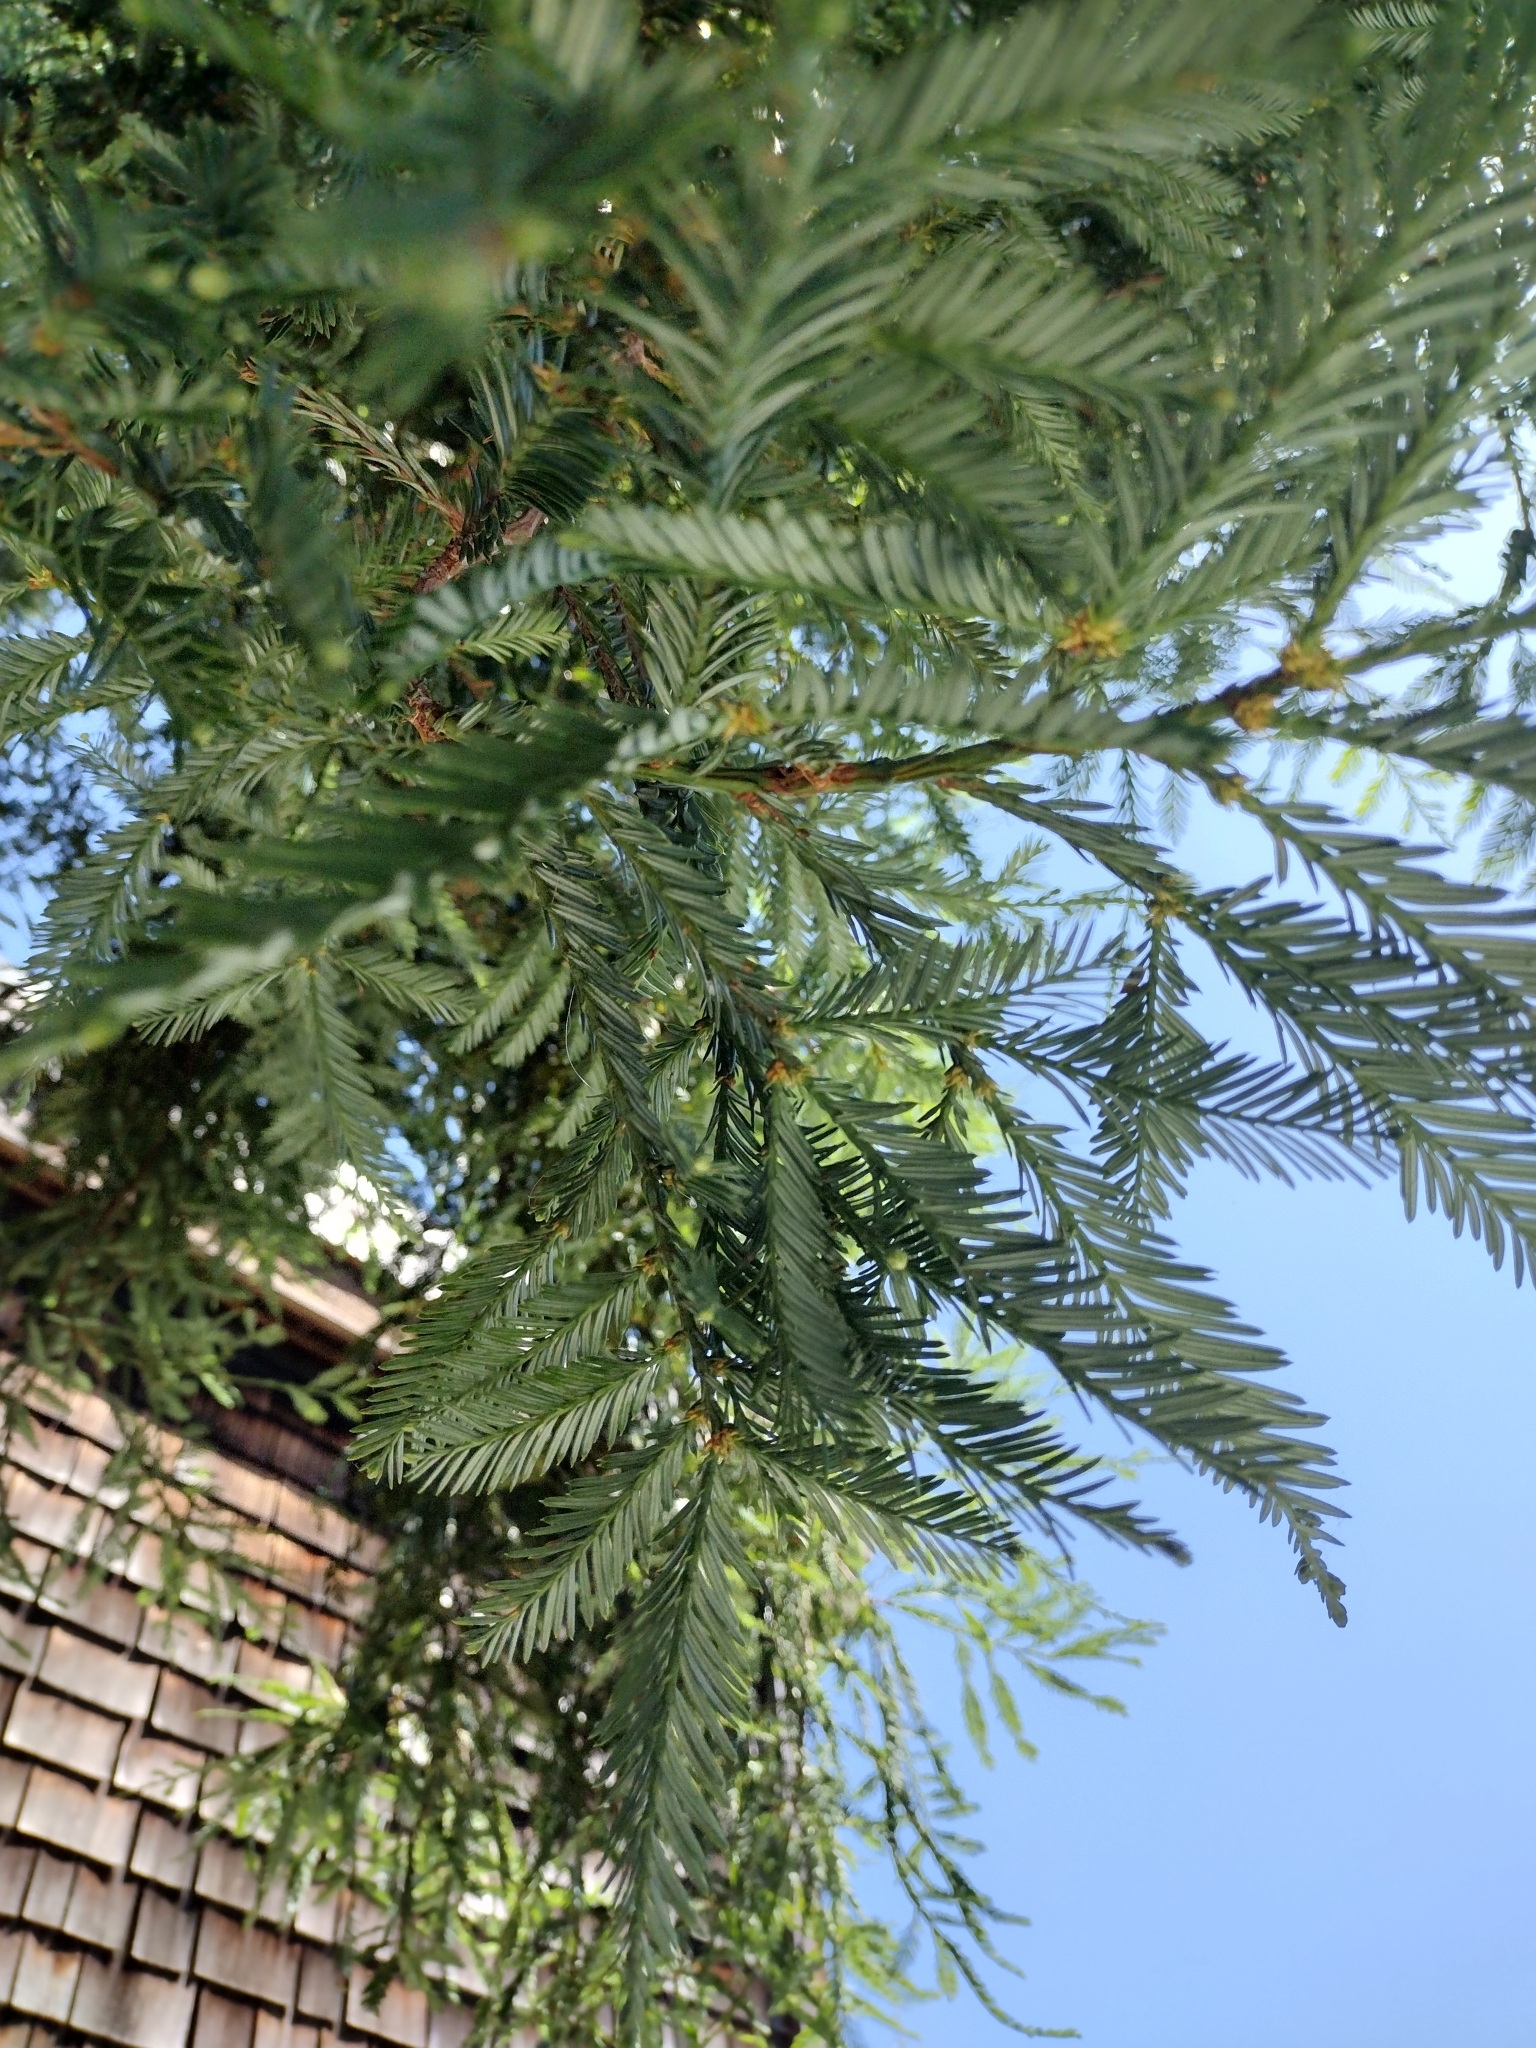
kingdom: Plantae
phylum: Tracheophyta
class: Pinopsida
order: Pinales
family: Cupressaceae
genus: Sequoia
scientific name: Sequoia sempervirens
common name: Coast redwood
